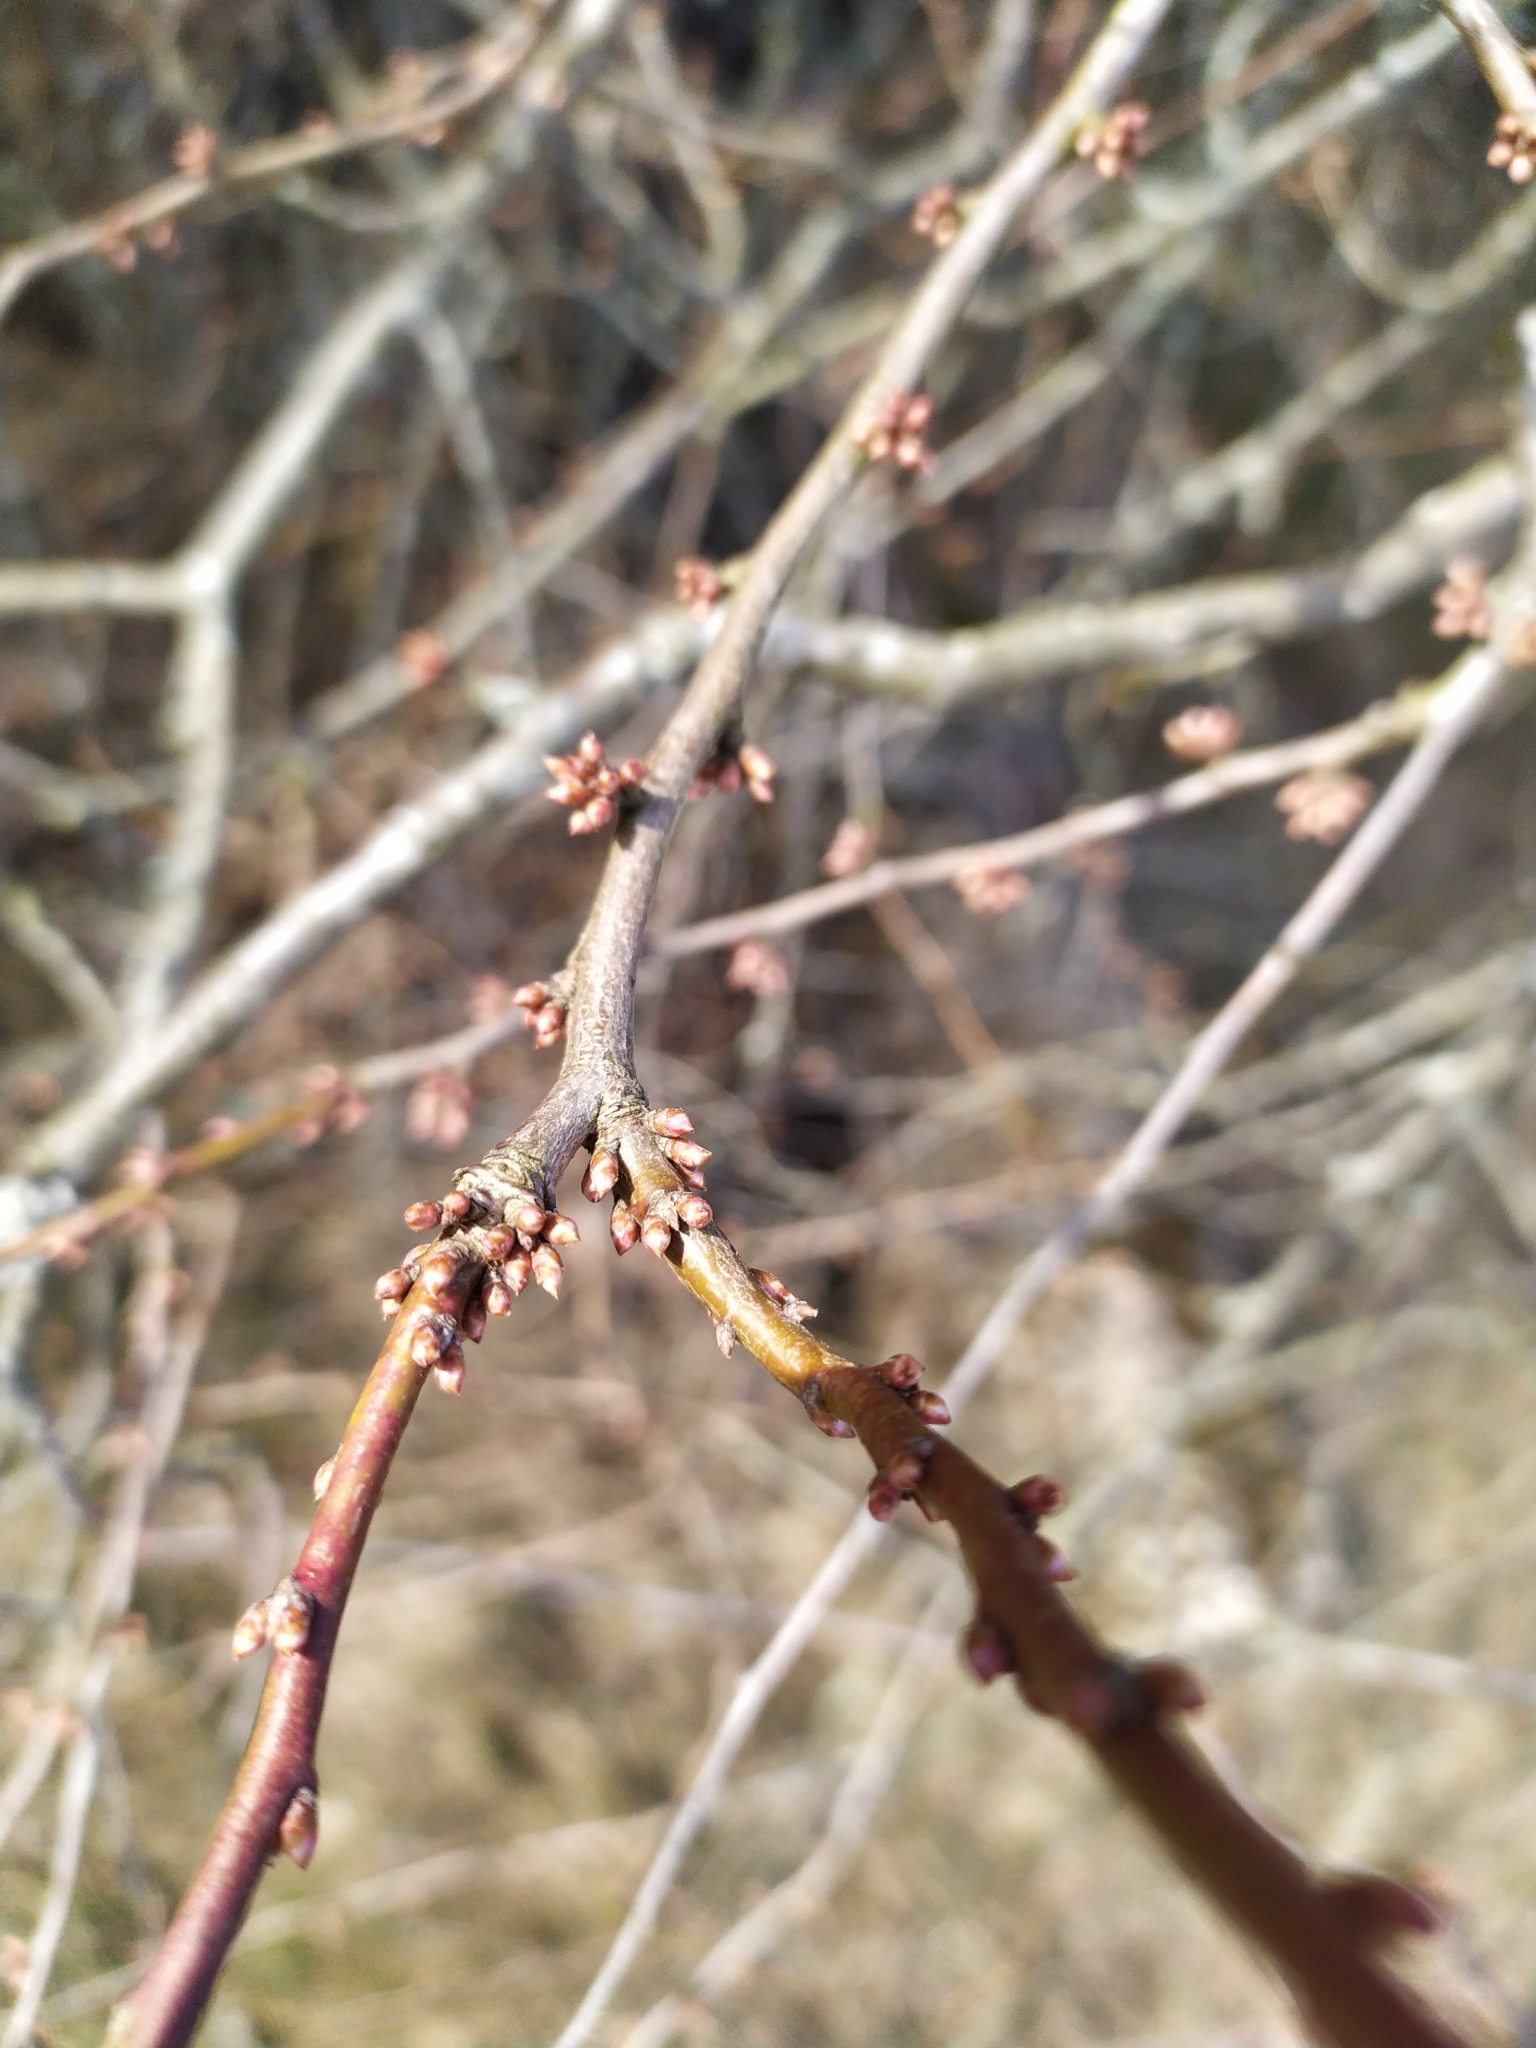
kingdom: Plantae
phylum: Tracheophyta
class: Magnoliopsida
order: Rosales
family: Rosaceae
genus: Prunus
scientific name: Prunus cerasifera
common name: Cherry plum
